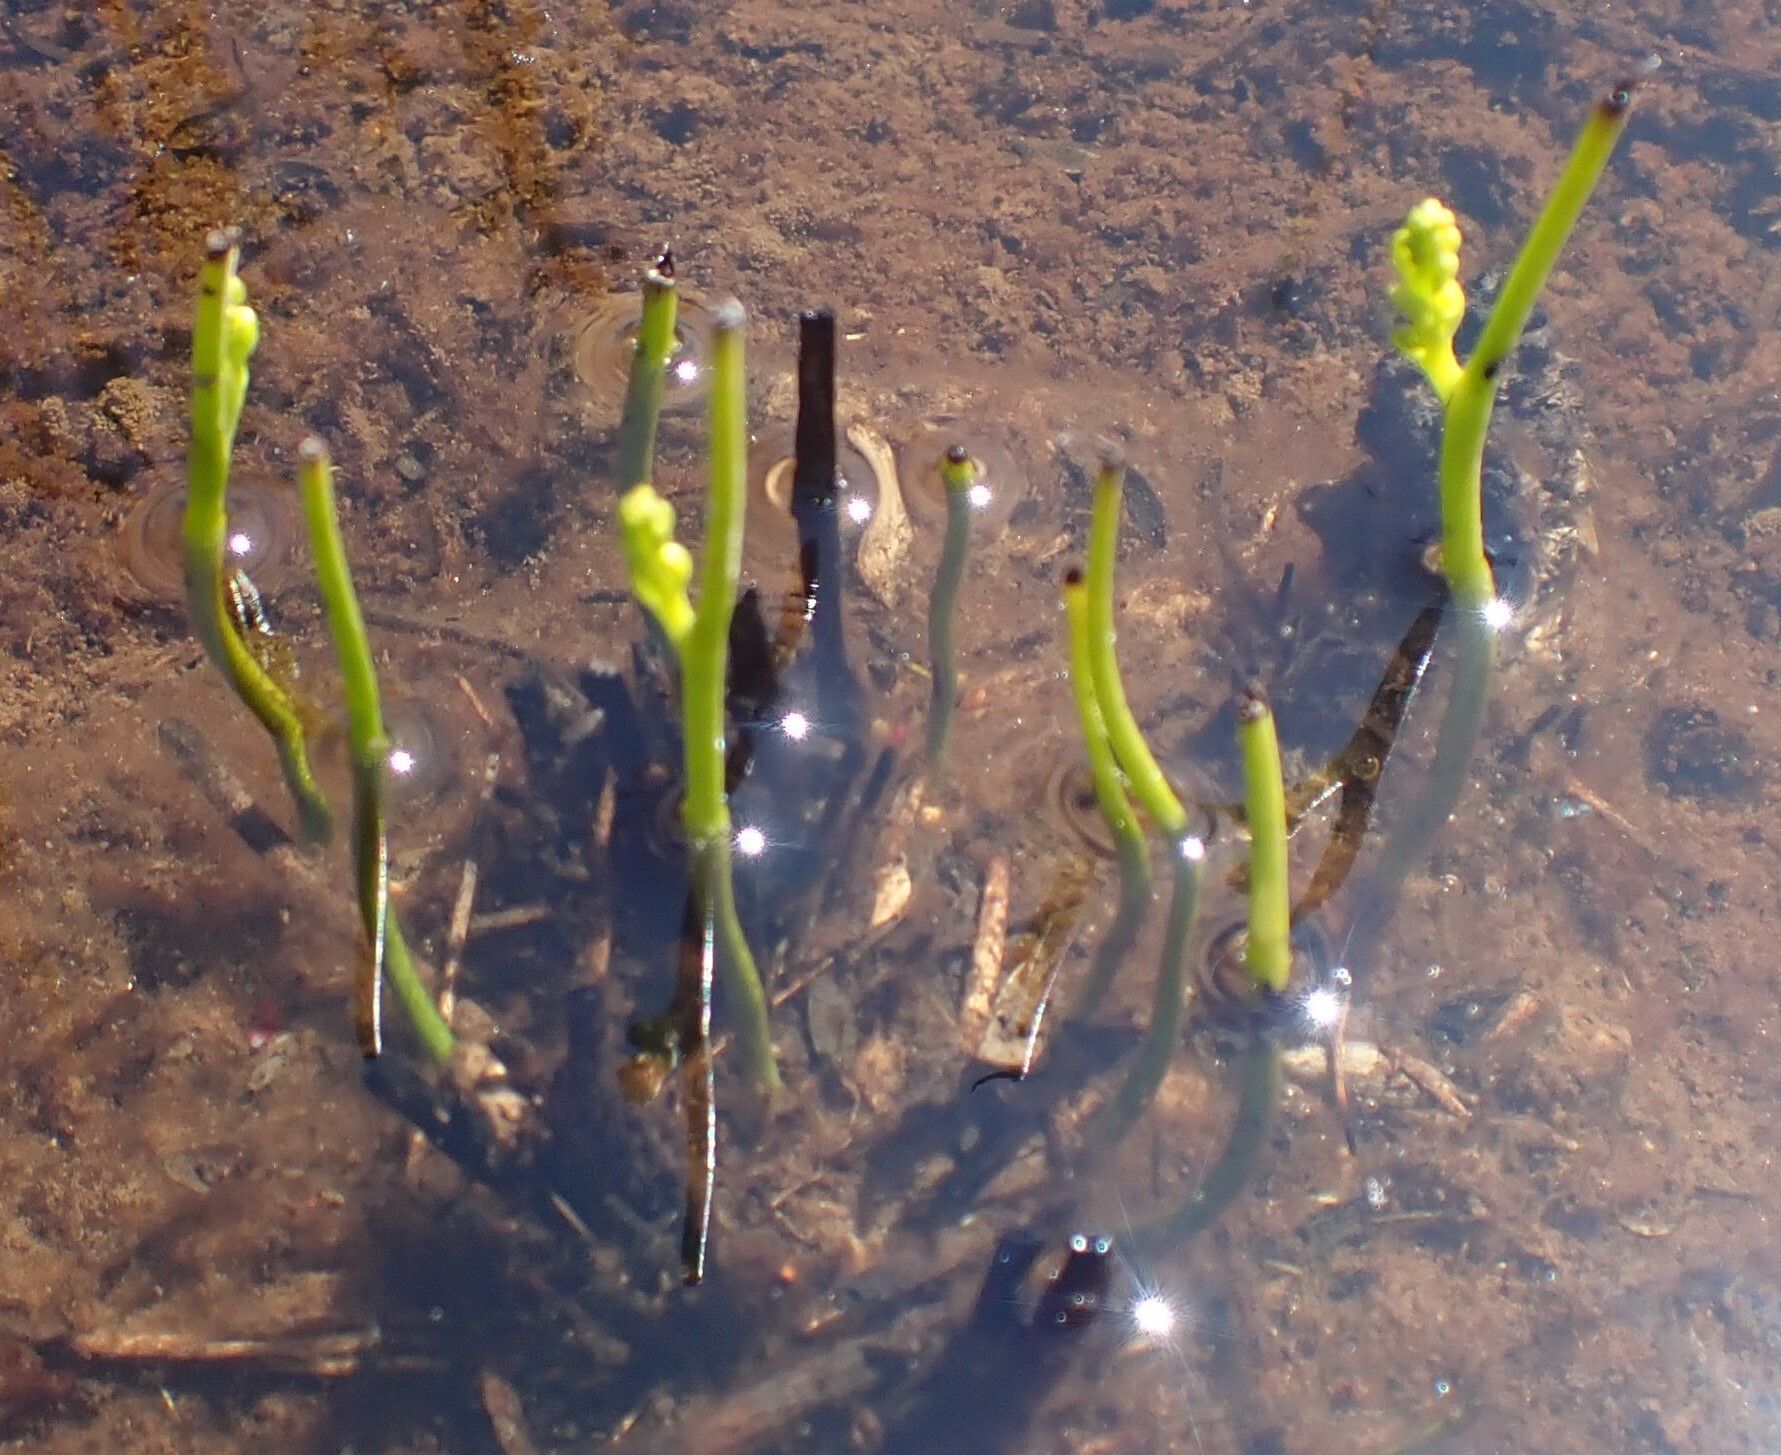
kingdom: Plantae
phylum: Tracheophyta
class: Liliopsida
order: Asparagales
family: Orchidaceae
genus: Microtis
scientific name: Microtis atrata
